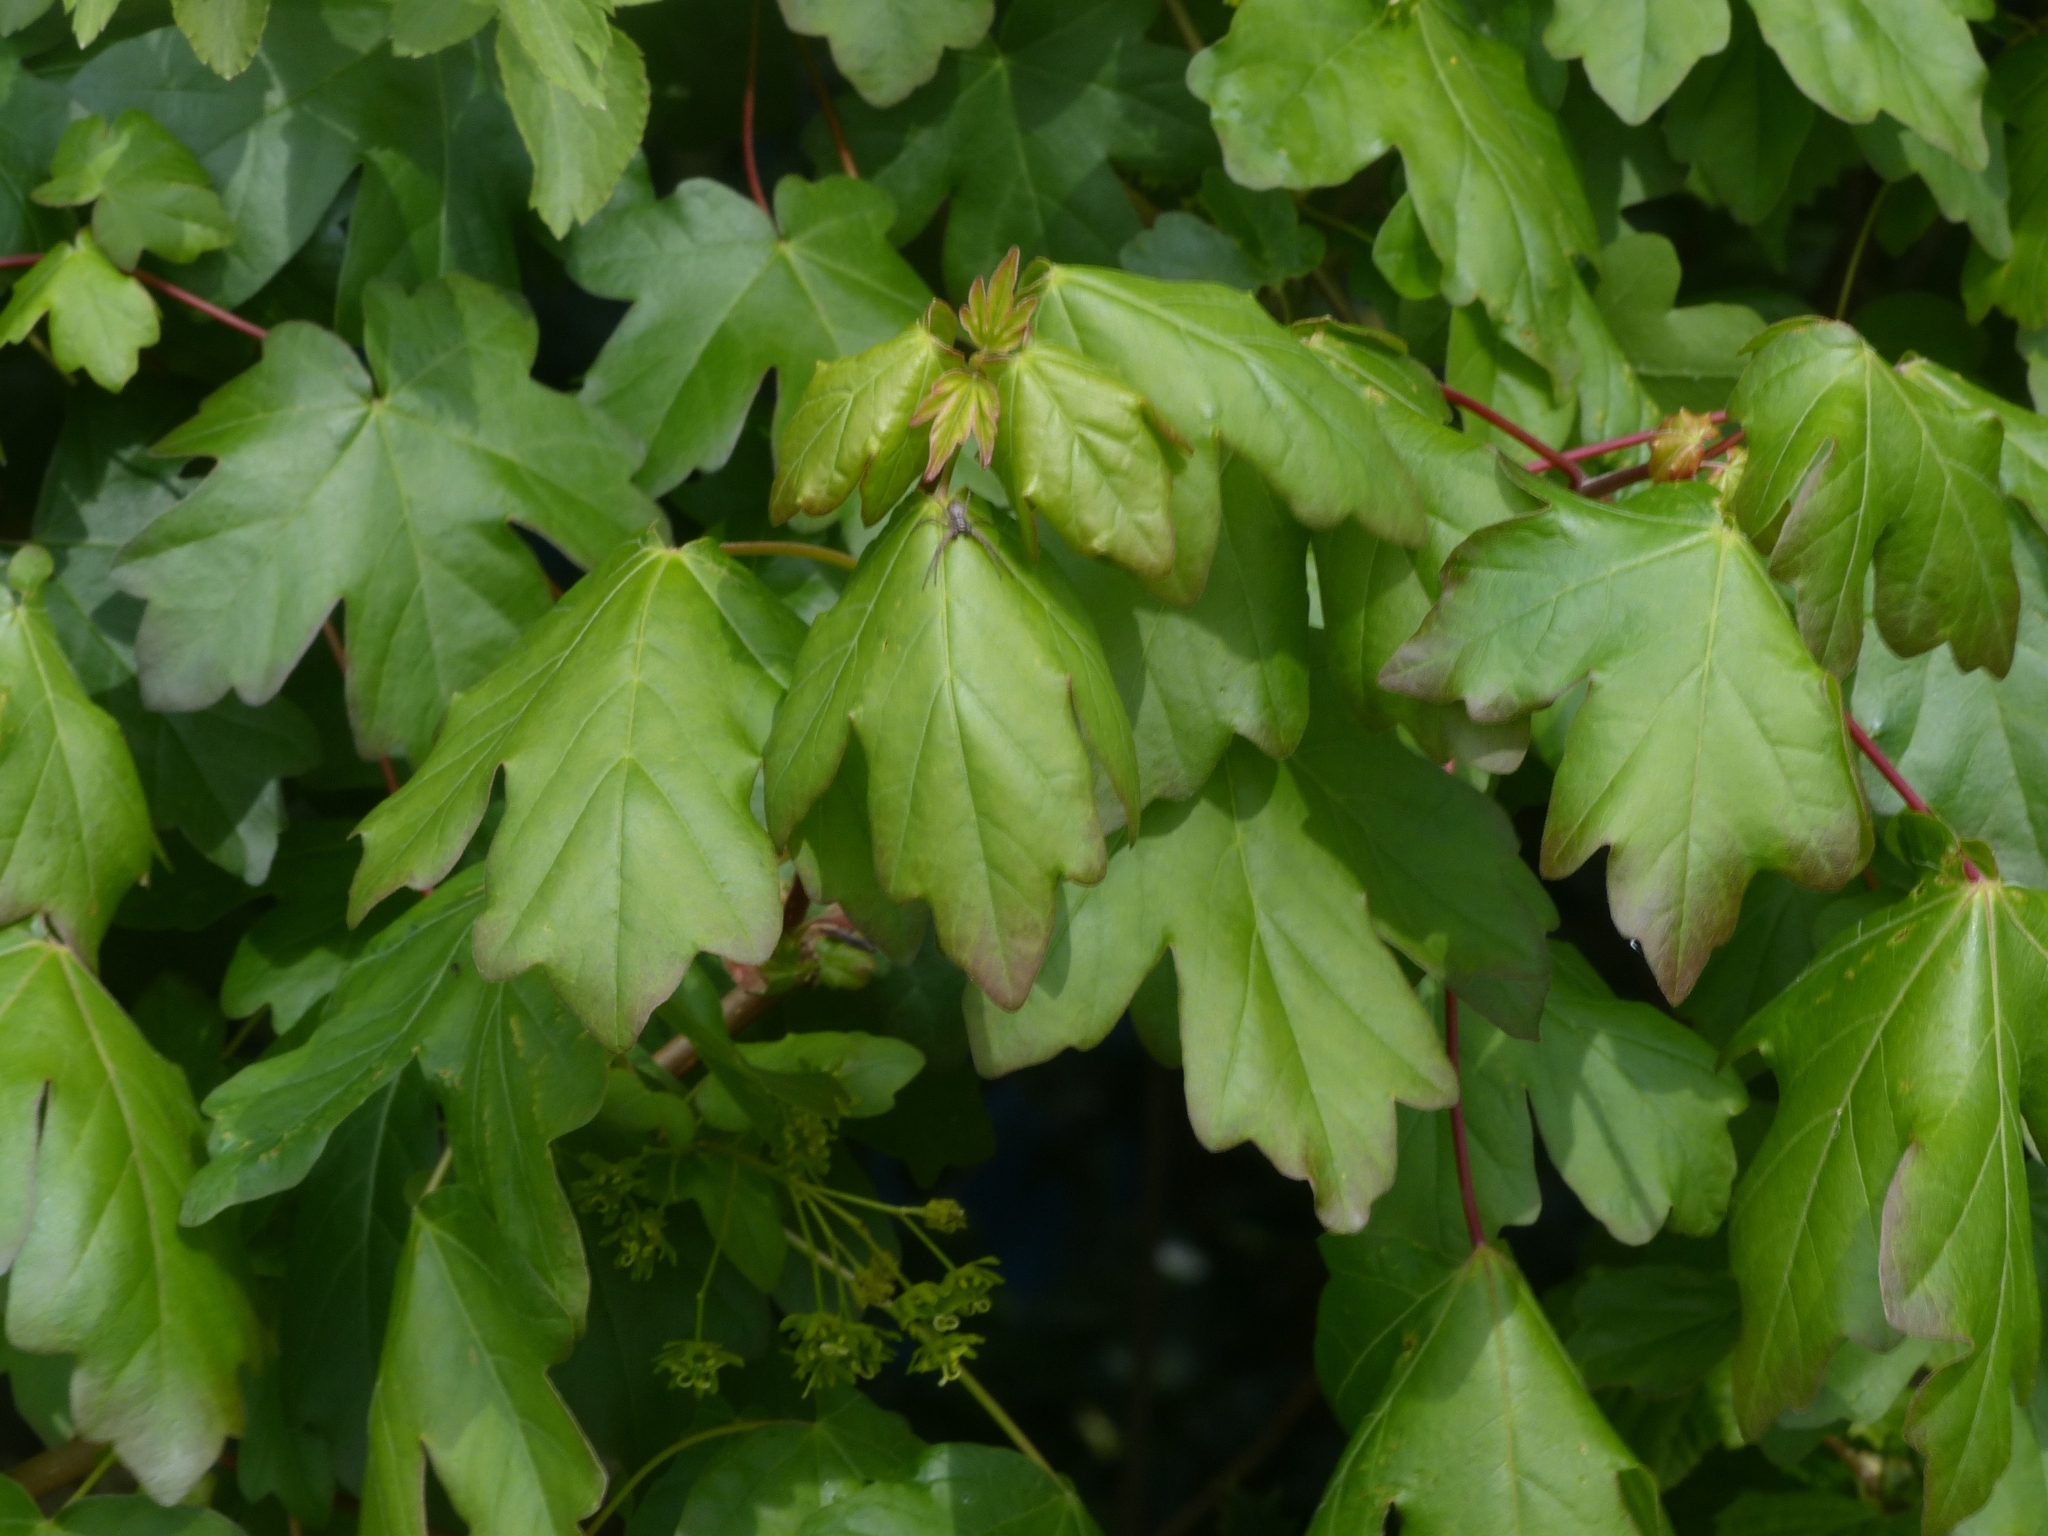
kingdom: Plantae
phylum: Tracheophyta
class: Magnoliopsida
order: Sapindales
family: Sapindaceae
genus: Acer
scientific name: Acer campestre
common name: Field maple
